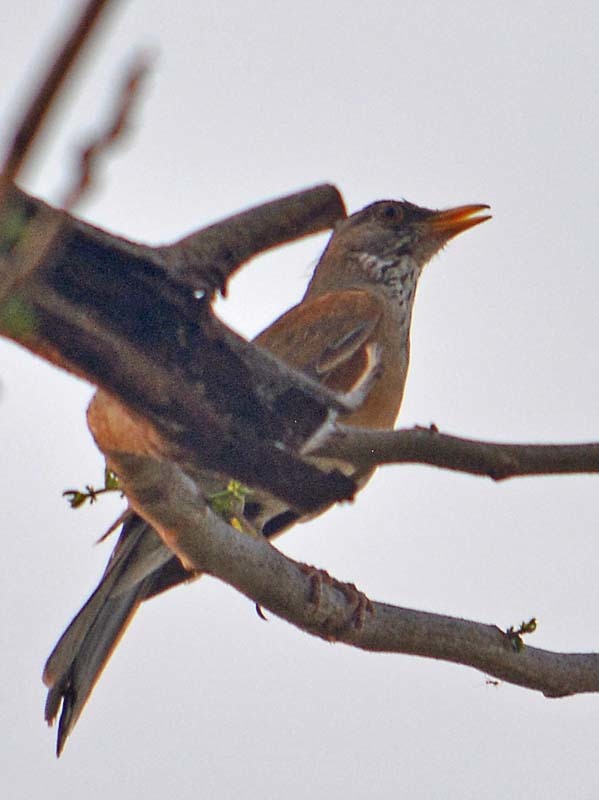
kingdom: Animalia
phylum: Chordata
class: Aves
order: Passeriformes
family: Turdidae
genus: Turdus
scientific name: Turdus rufopalliatus
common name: Rufous-backed robin
